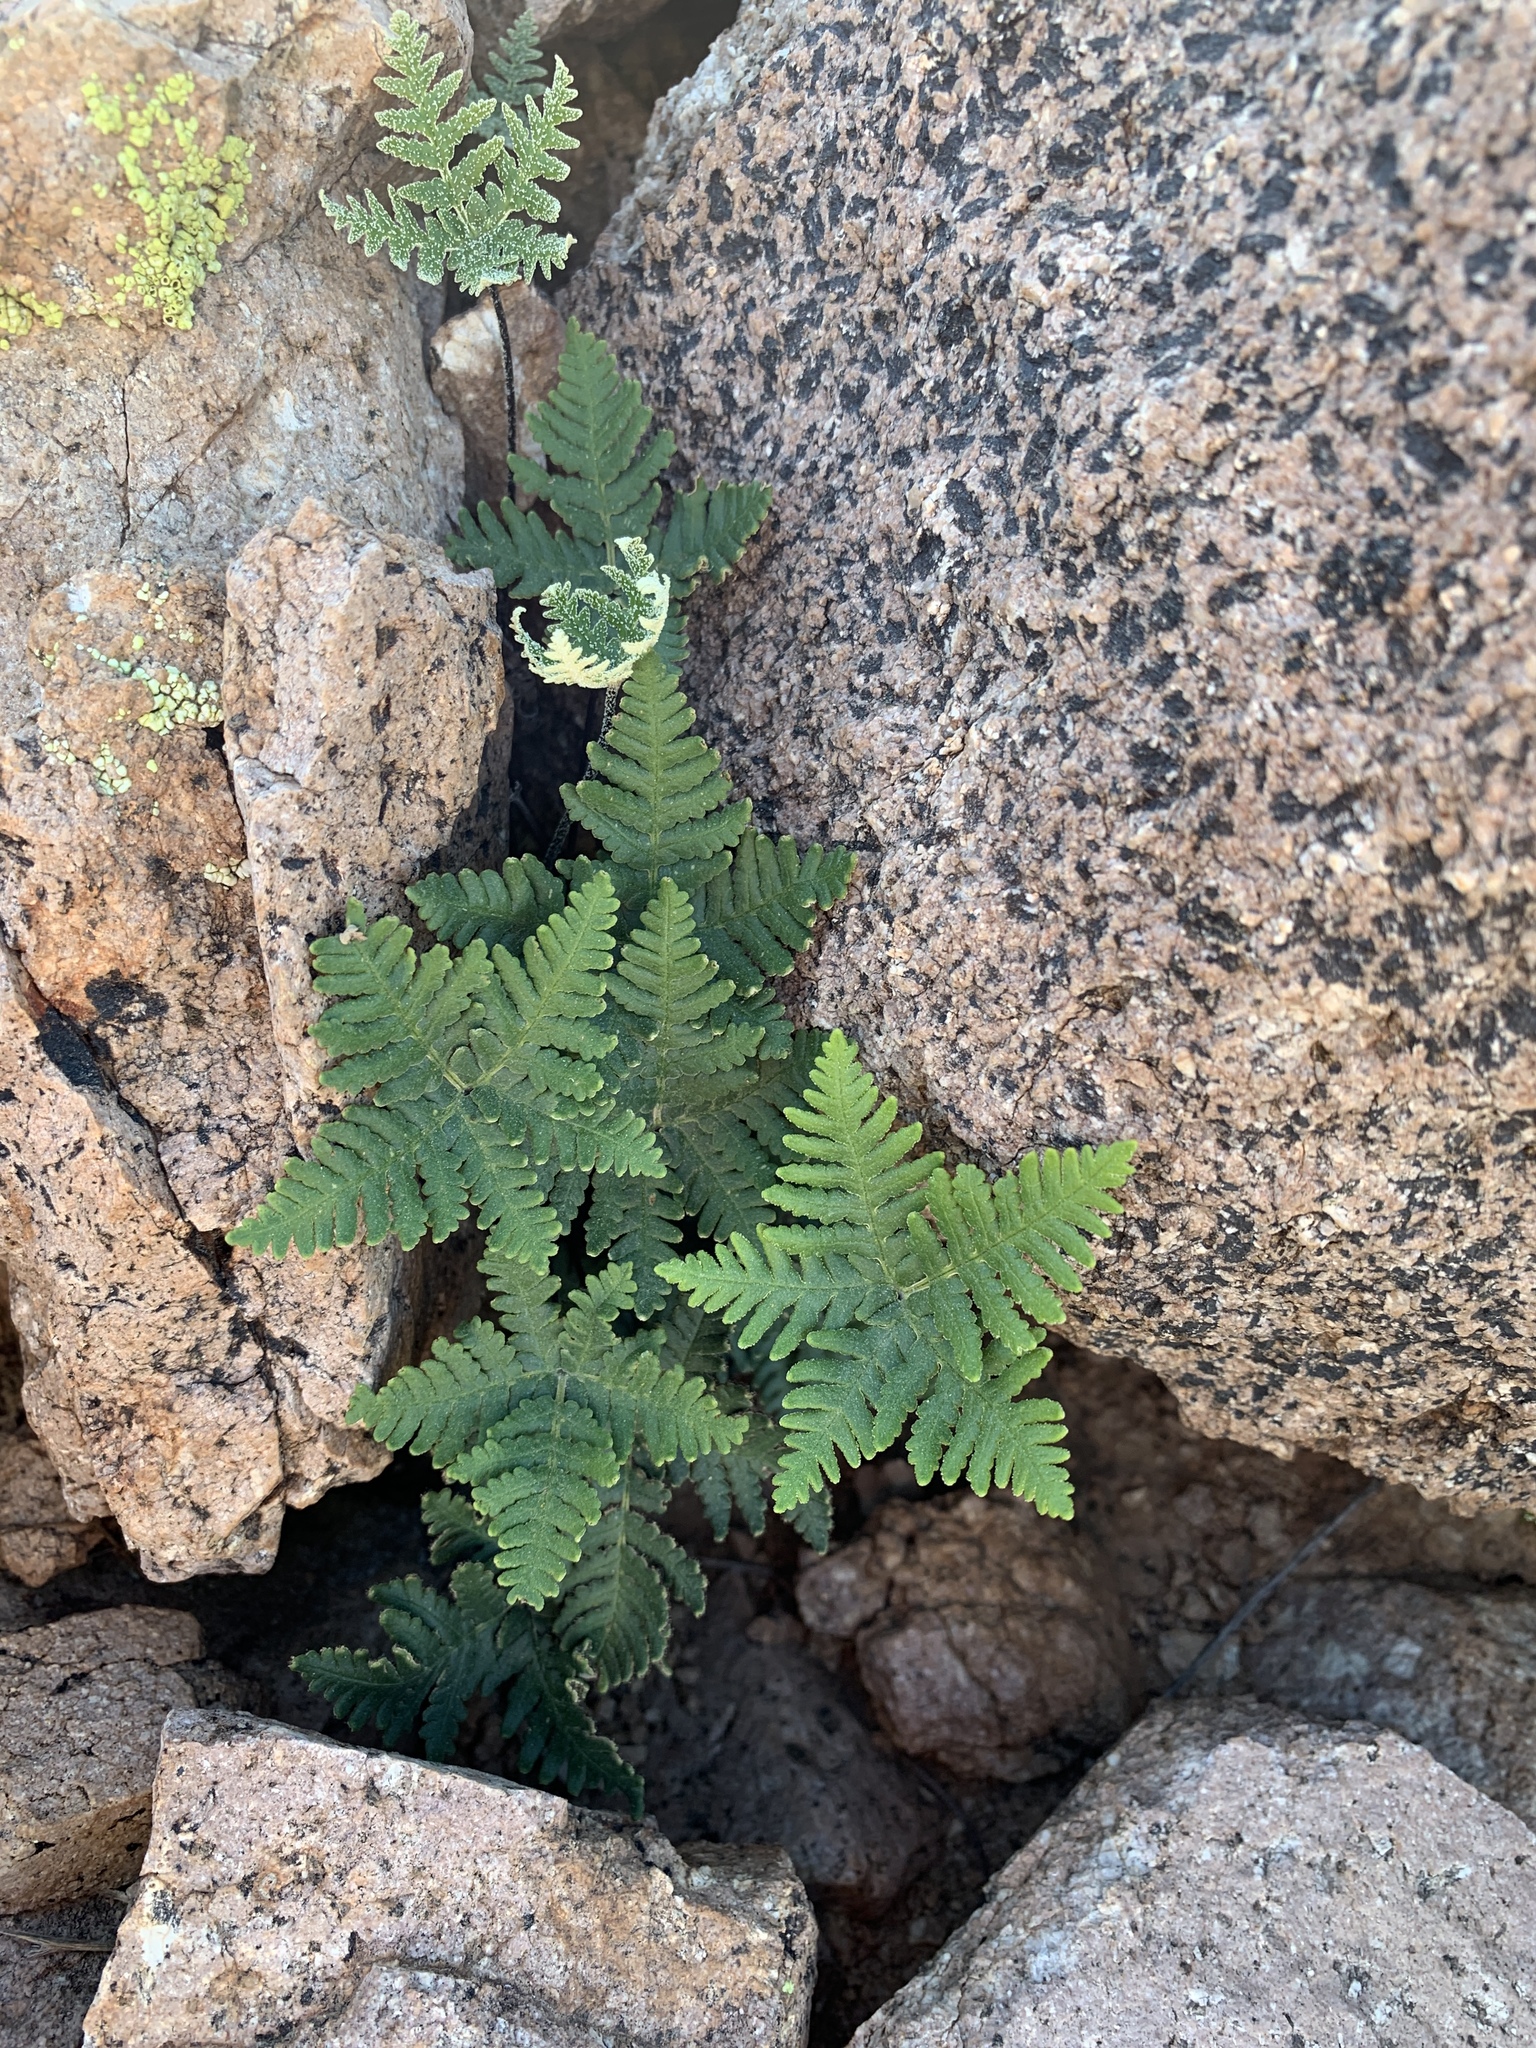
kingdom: Plantae
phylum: Tracheophyta
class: Polypodiopsida
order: Polypodiales
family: Pteridaceae
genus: Notholaena
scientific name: Notholaena standleyi
